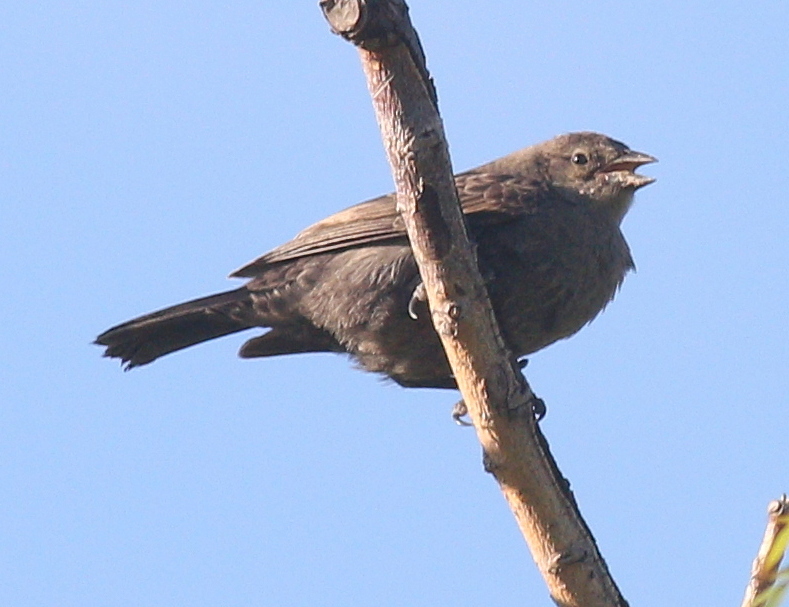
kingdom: Animalia
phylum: Chordata
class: Aves
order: Passeriformes
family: Icteridae
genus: Molothrus
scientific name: Molothrus bonariensis
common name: Shiny cowbird
